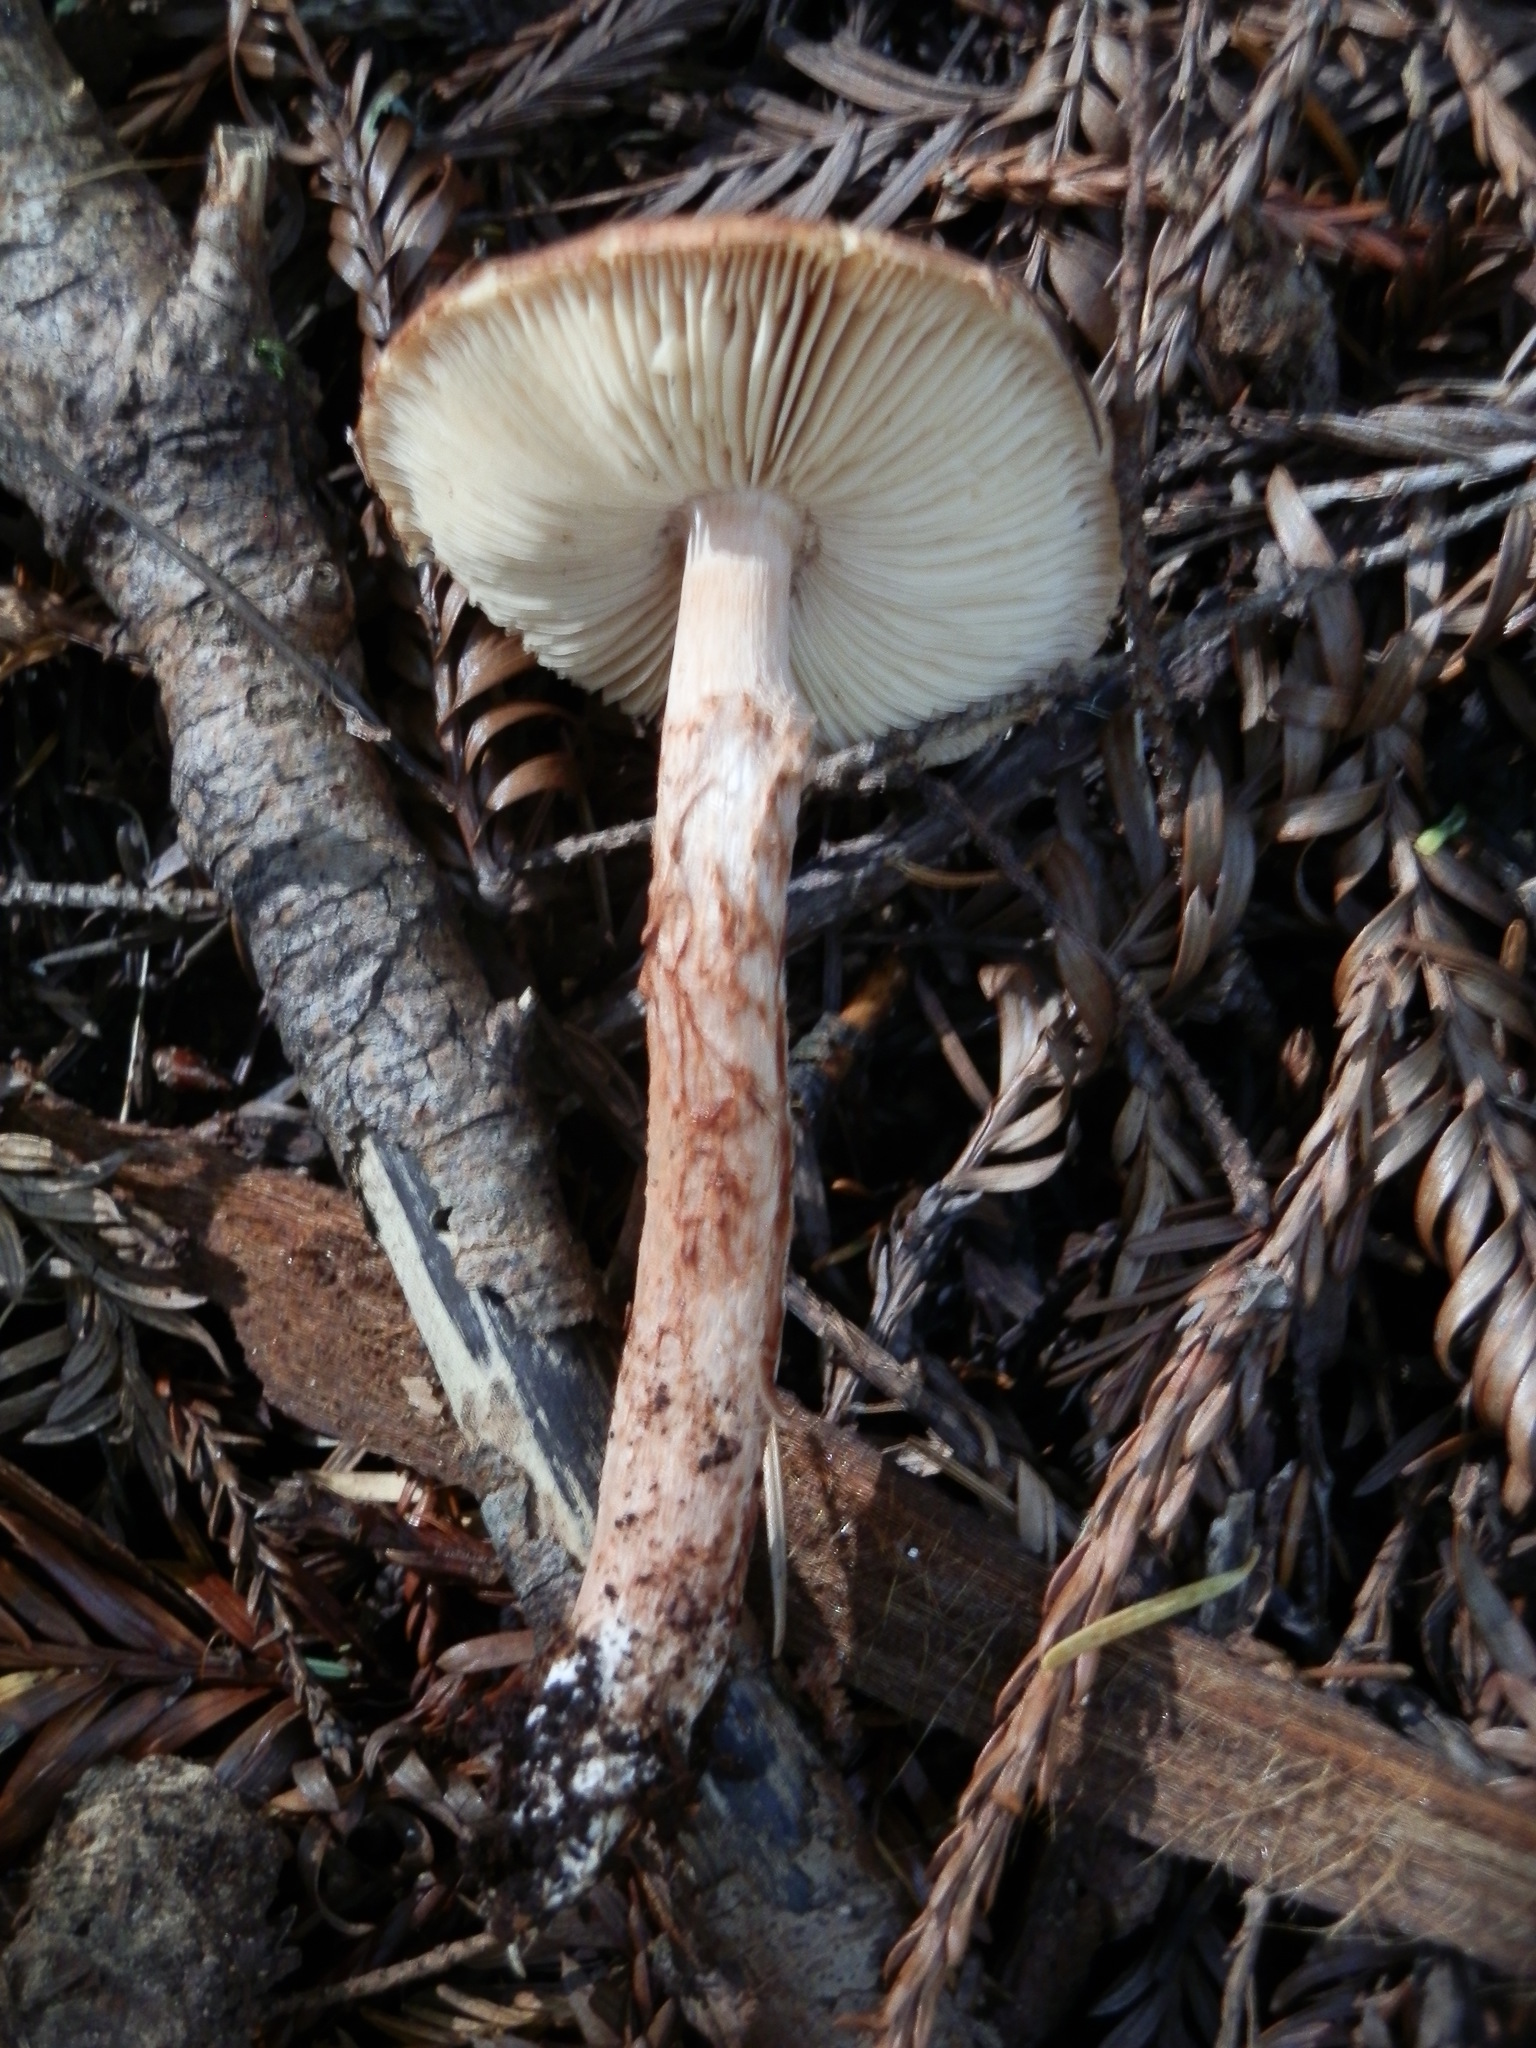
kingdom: Fungi
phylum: Basidiomycota
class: Agaricomycetes
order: Agaricales
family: Amanitaceae
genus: Limacella
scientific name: Limacella delicata
